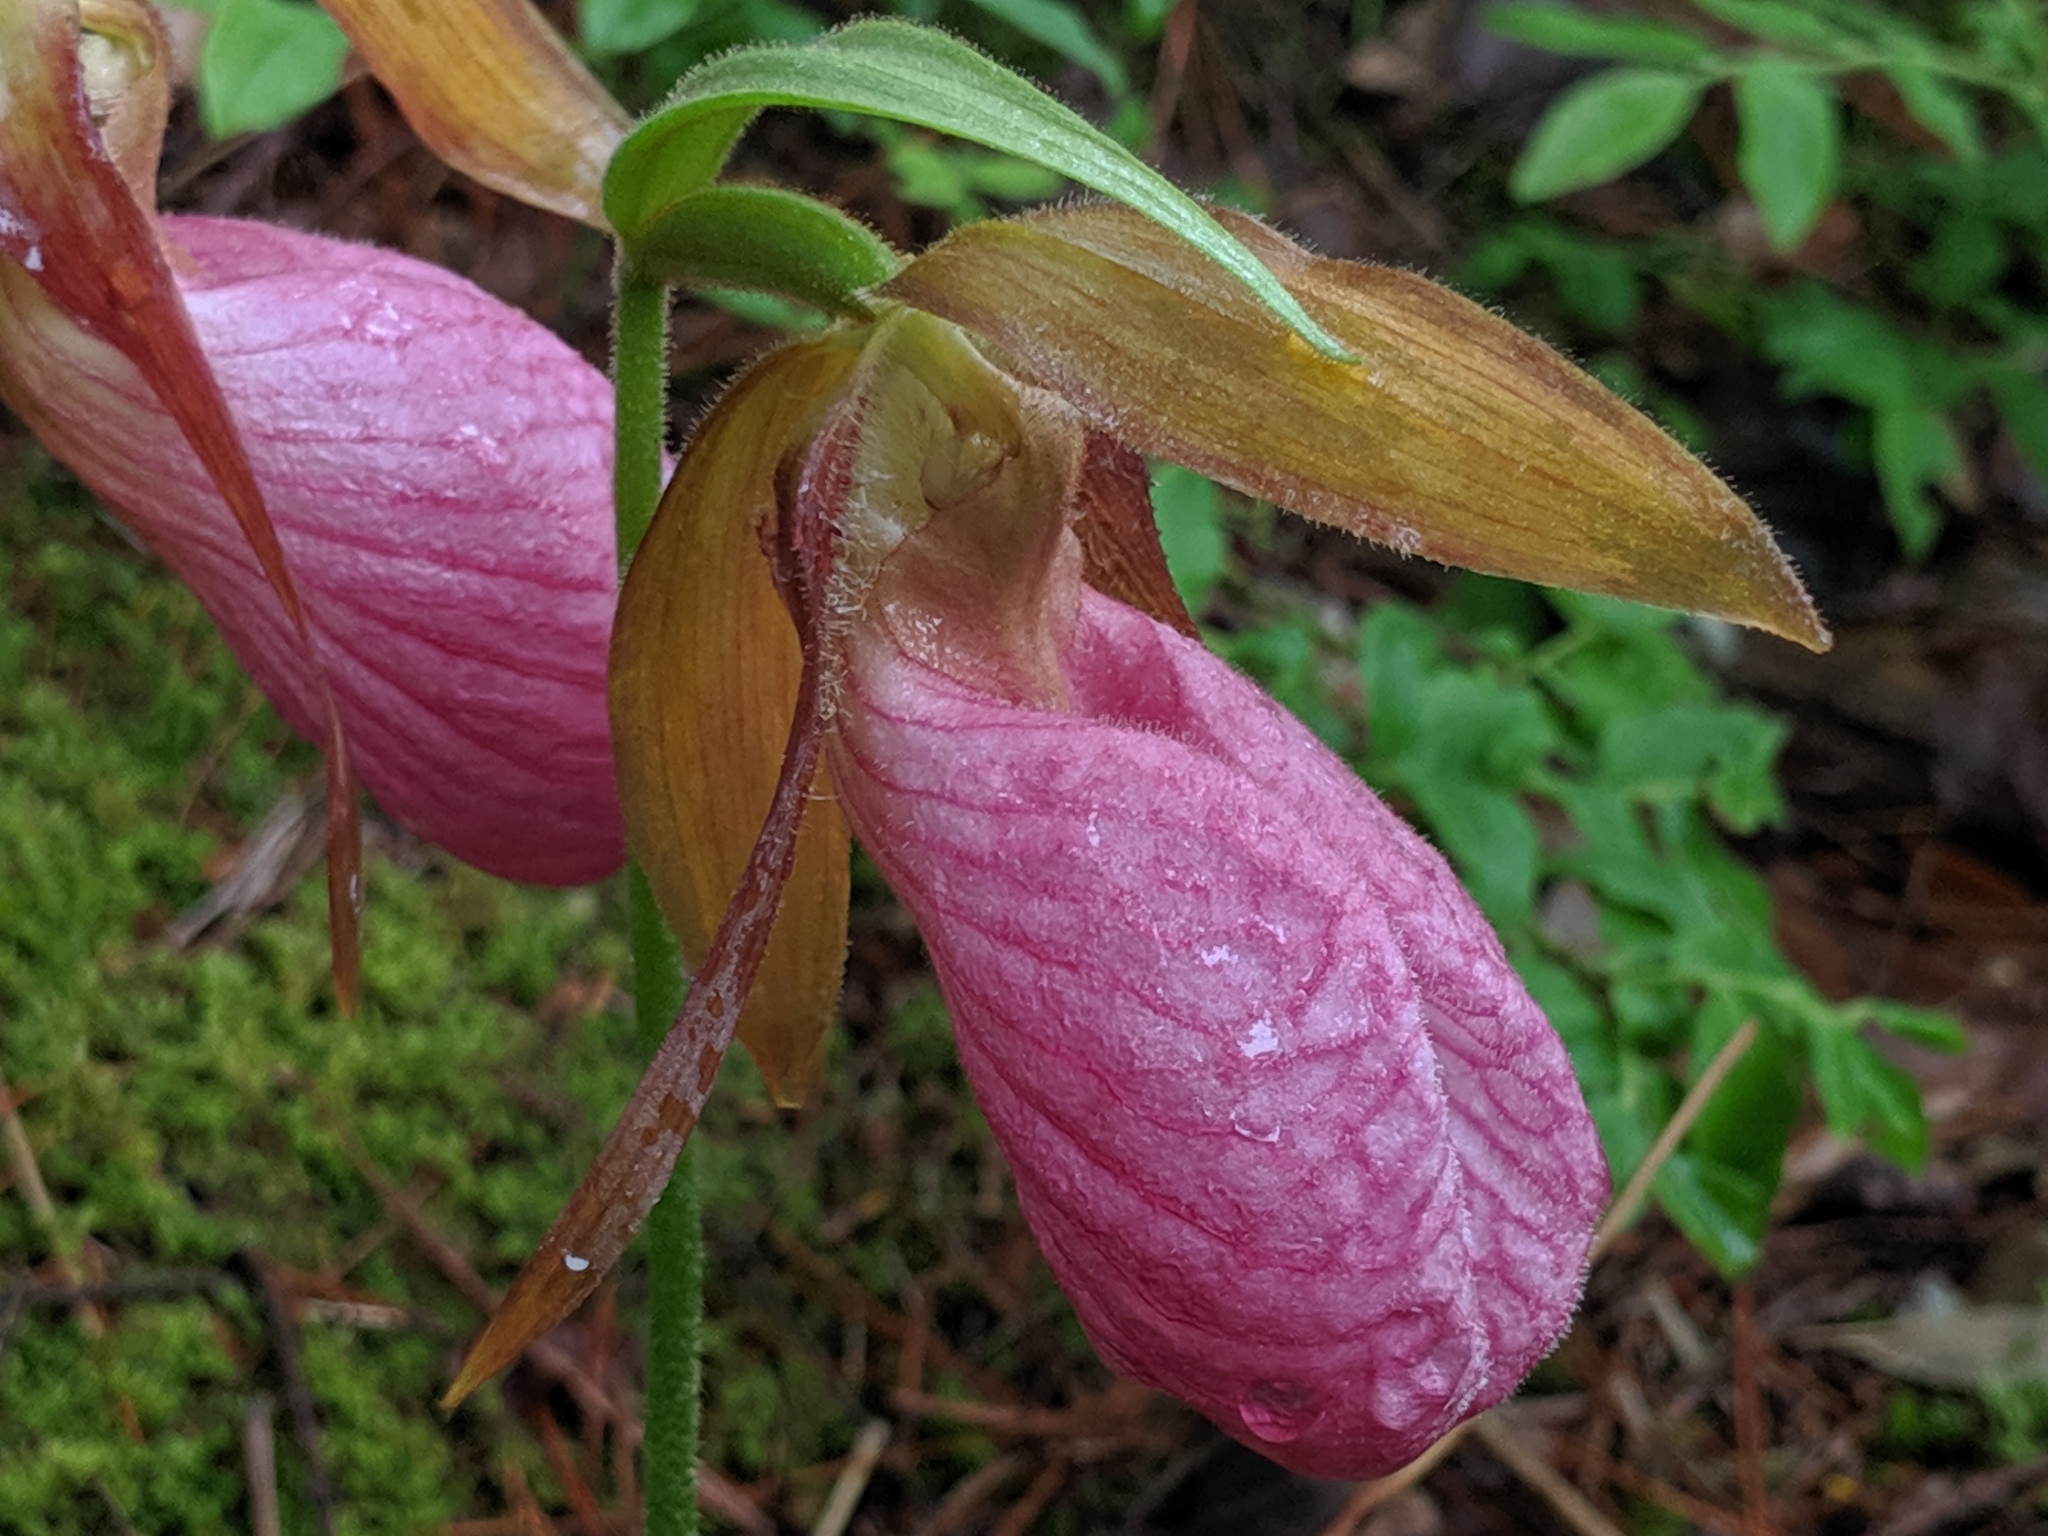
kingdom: Plantae
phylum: Tracheophyta
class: Liliopsida
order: Asparagales
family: Orchidaceae
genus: Cypripedium
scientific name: Cypripedium acaule
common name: Pink lady's-slipper
